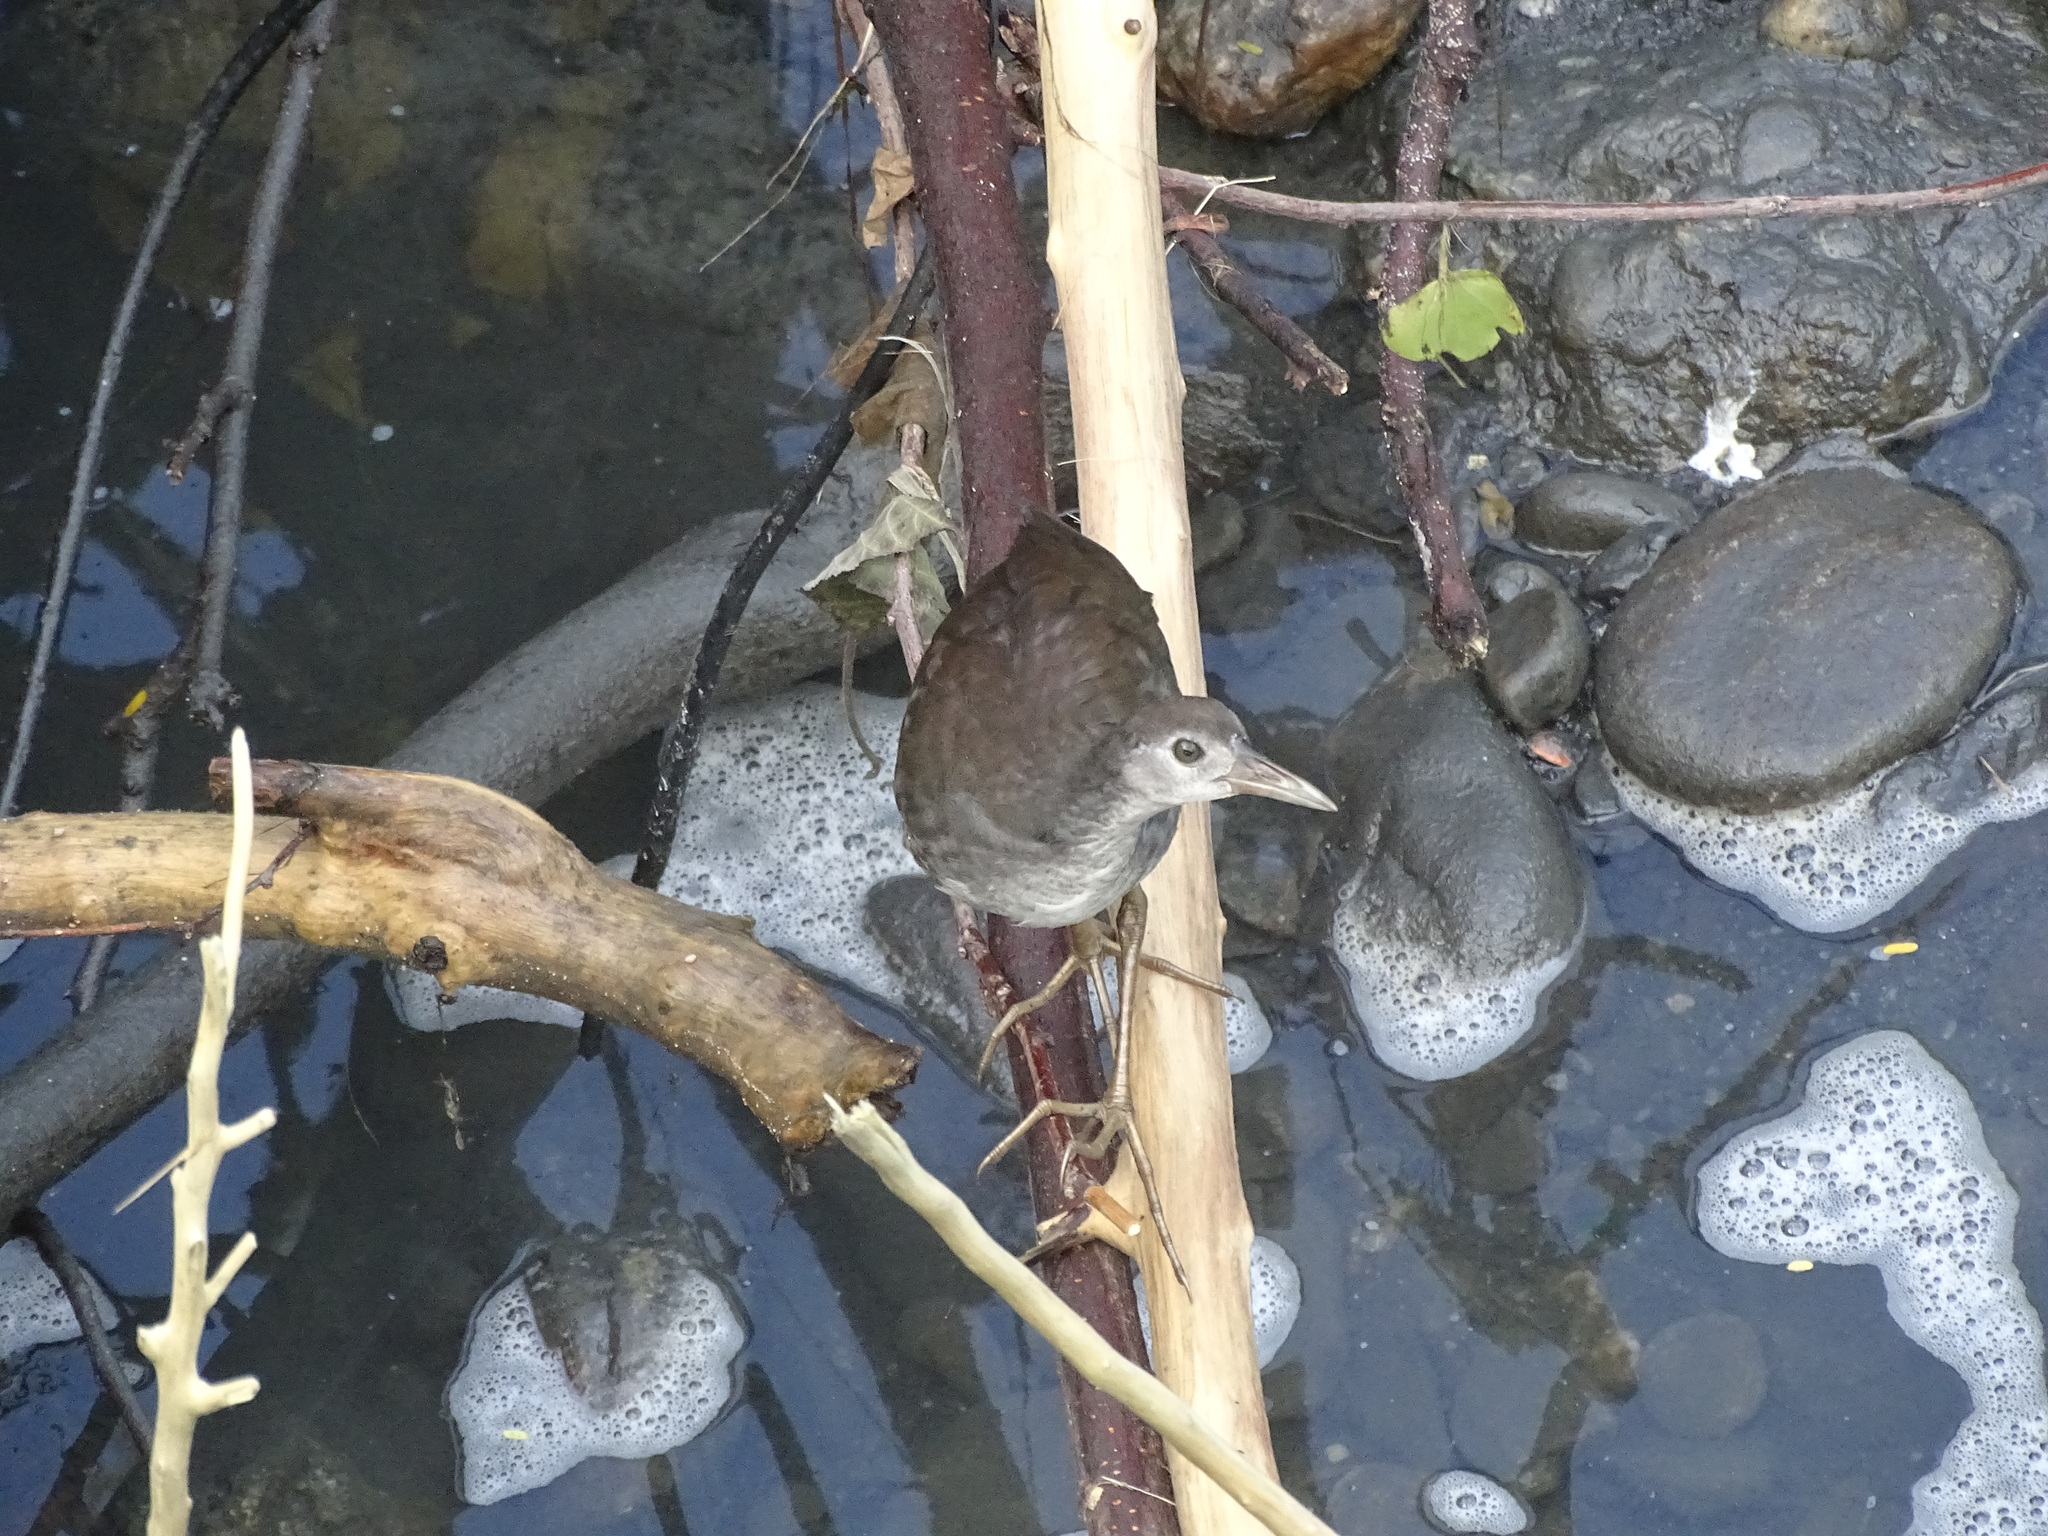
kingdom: Animalia
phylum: Chordata
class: Aves
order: Gruiformes
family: Rallidae
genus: Amaurornis
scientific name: Amaurornis phoenicurus
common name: White-breasted waterhen
